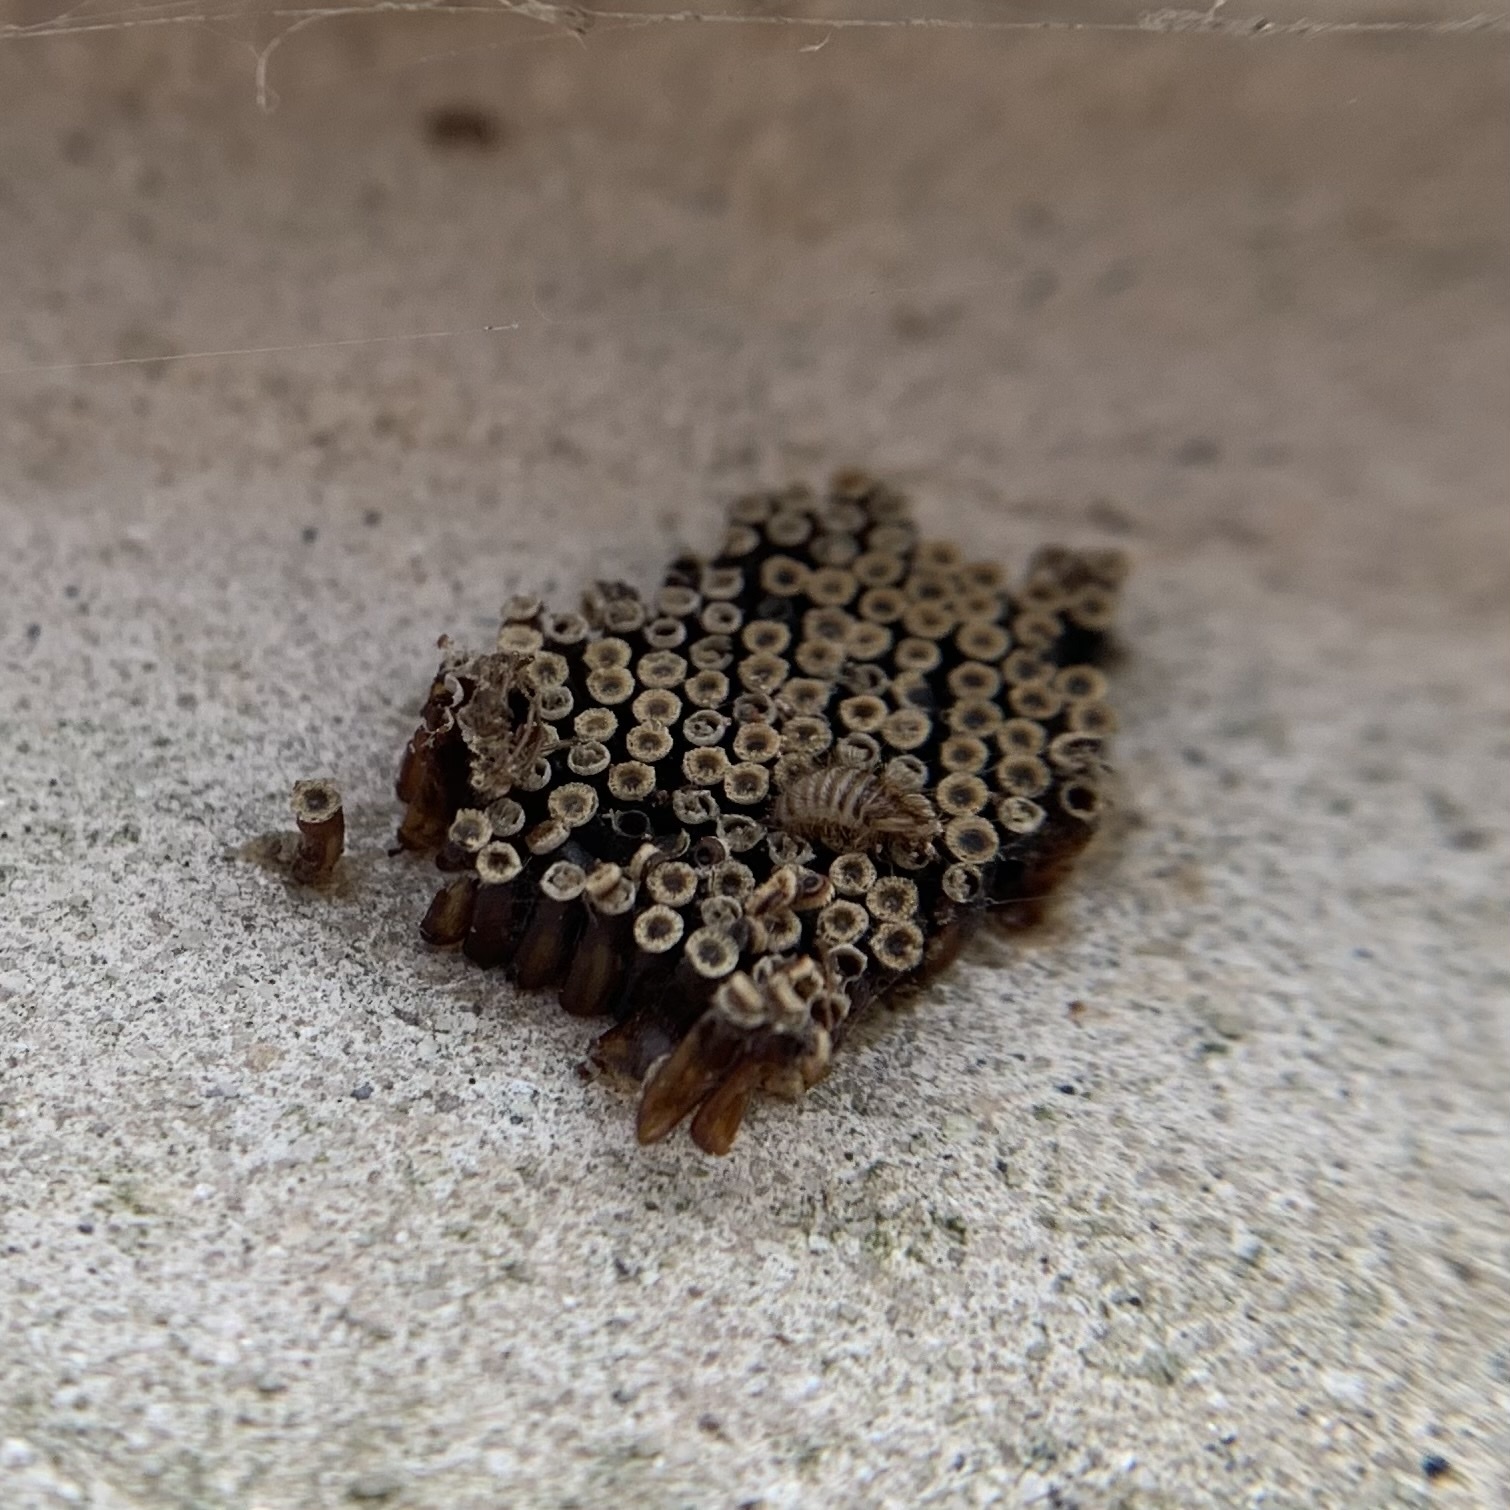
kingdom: Animalia
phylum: Arthropoda
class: Insecta
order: Hemiptera
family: Reduviidae
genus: Arilus
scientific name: Arilus cristatus
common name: North american wheel bug
